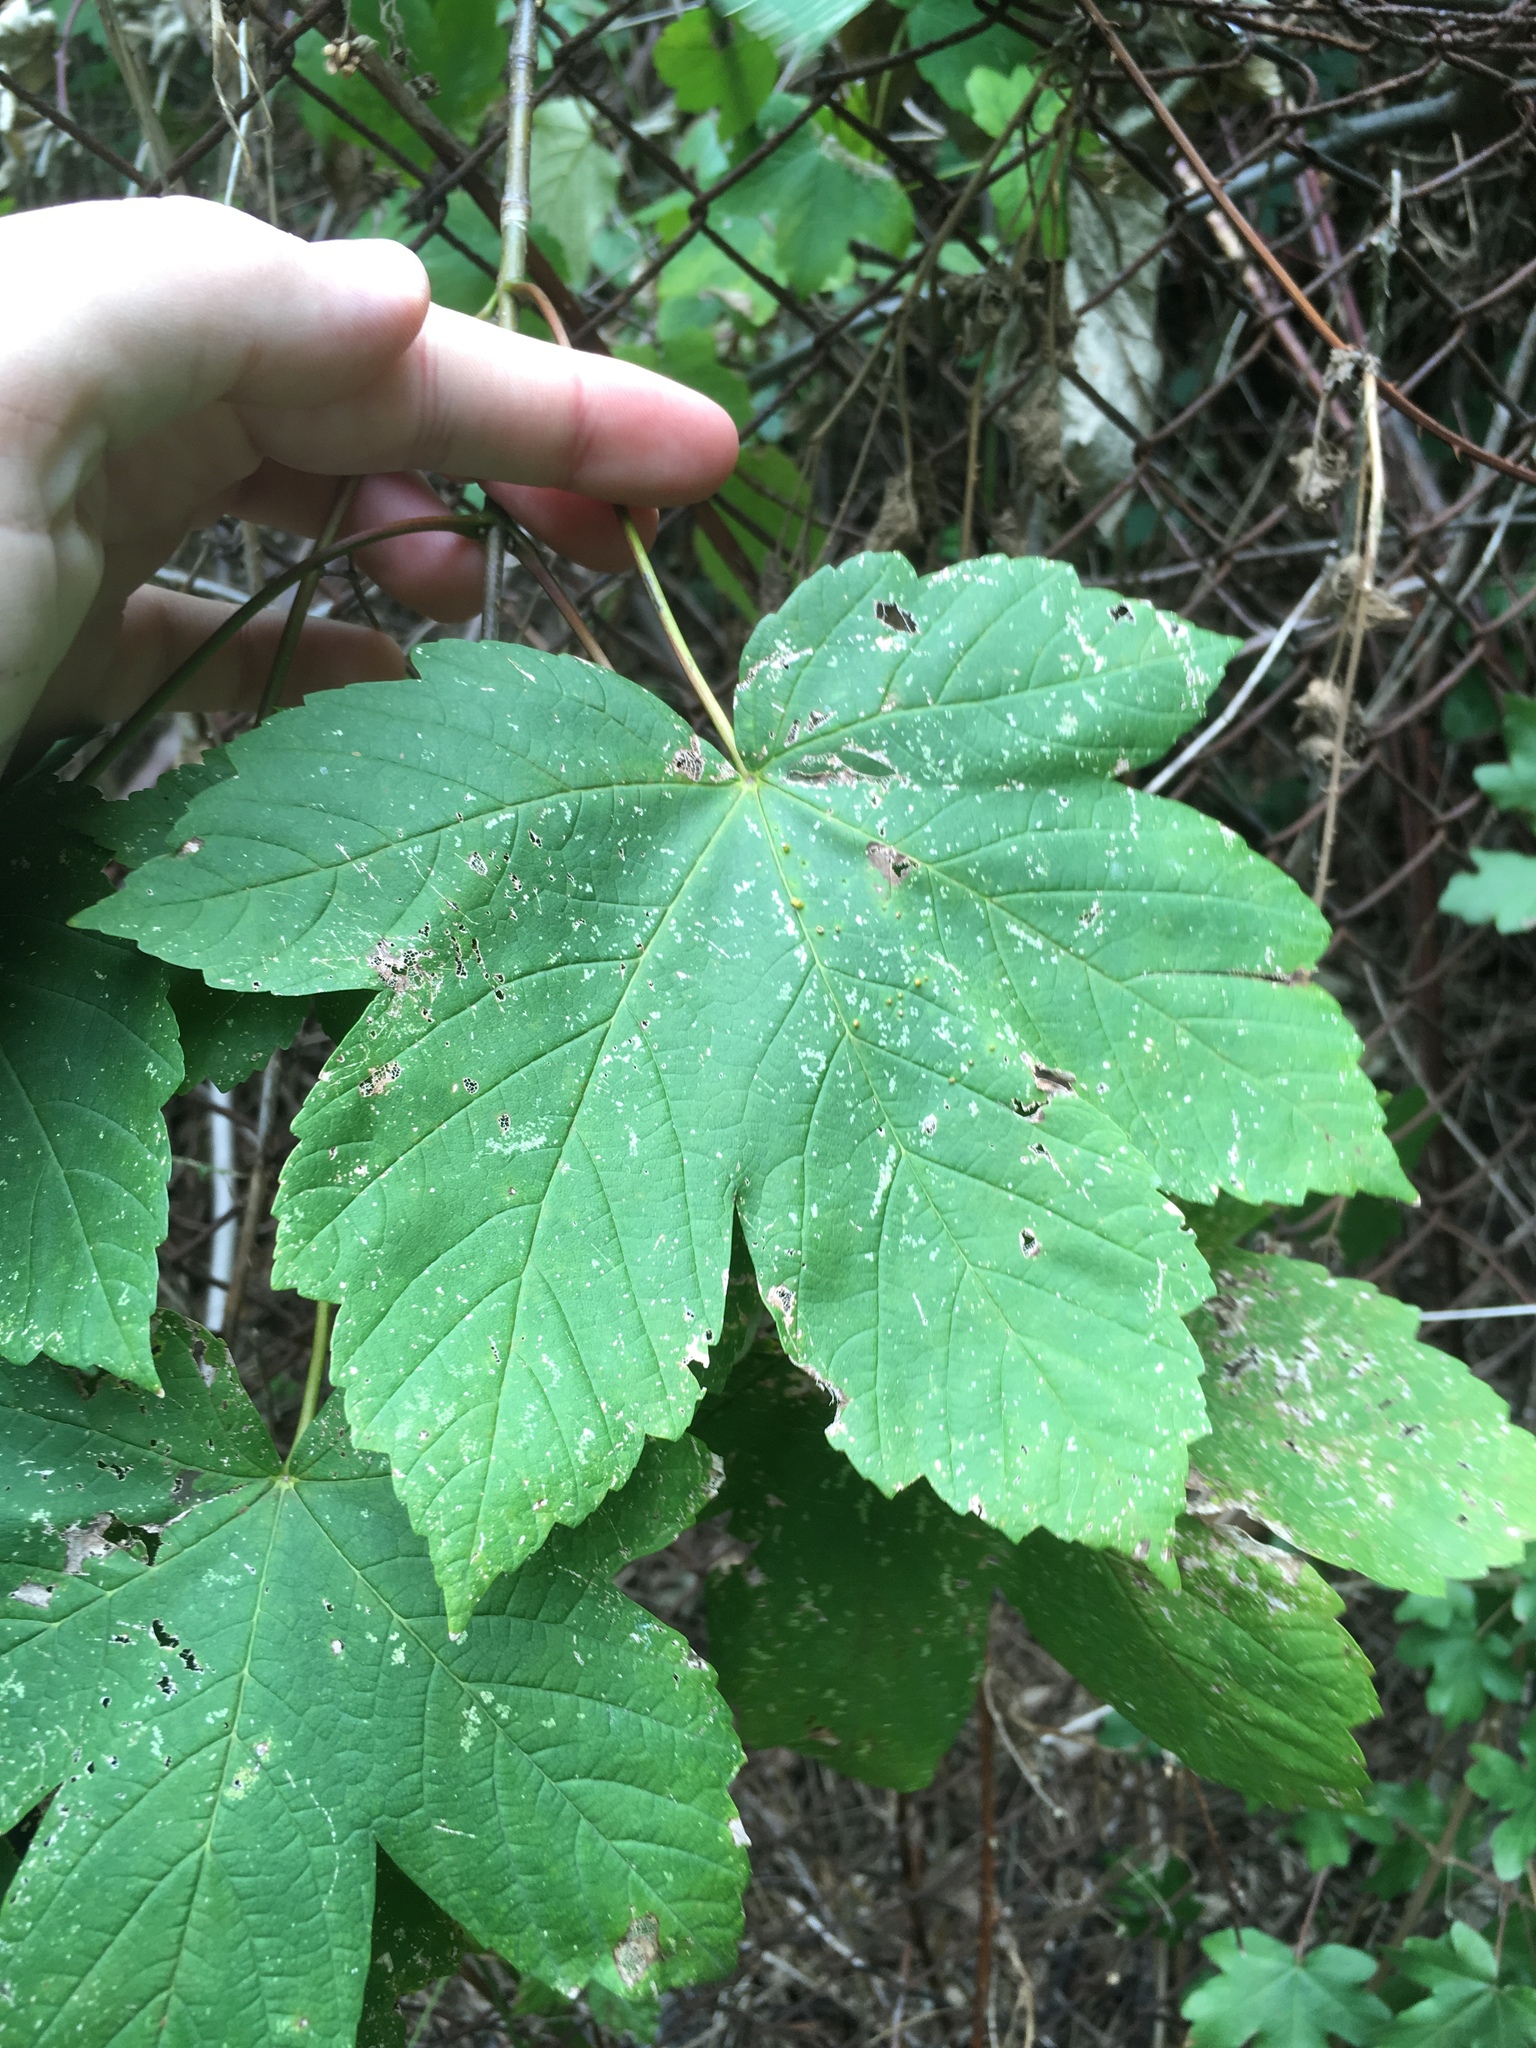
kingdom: Plantae
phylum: Tracheophyta
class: Magnoliopsida
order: Sapindales
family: Sapindaceae
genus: Acer
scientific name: Acer pseudoplatanus
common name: Sycamore
